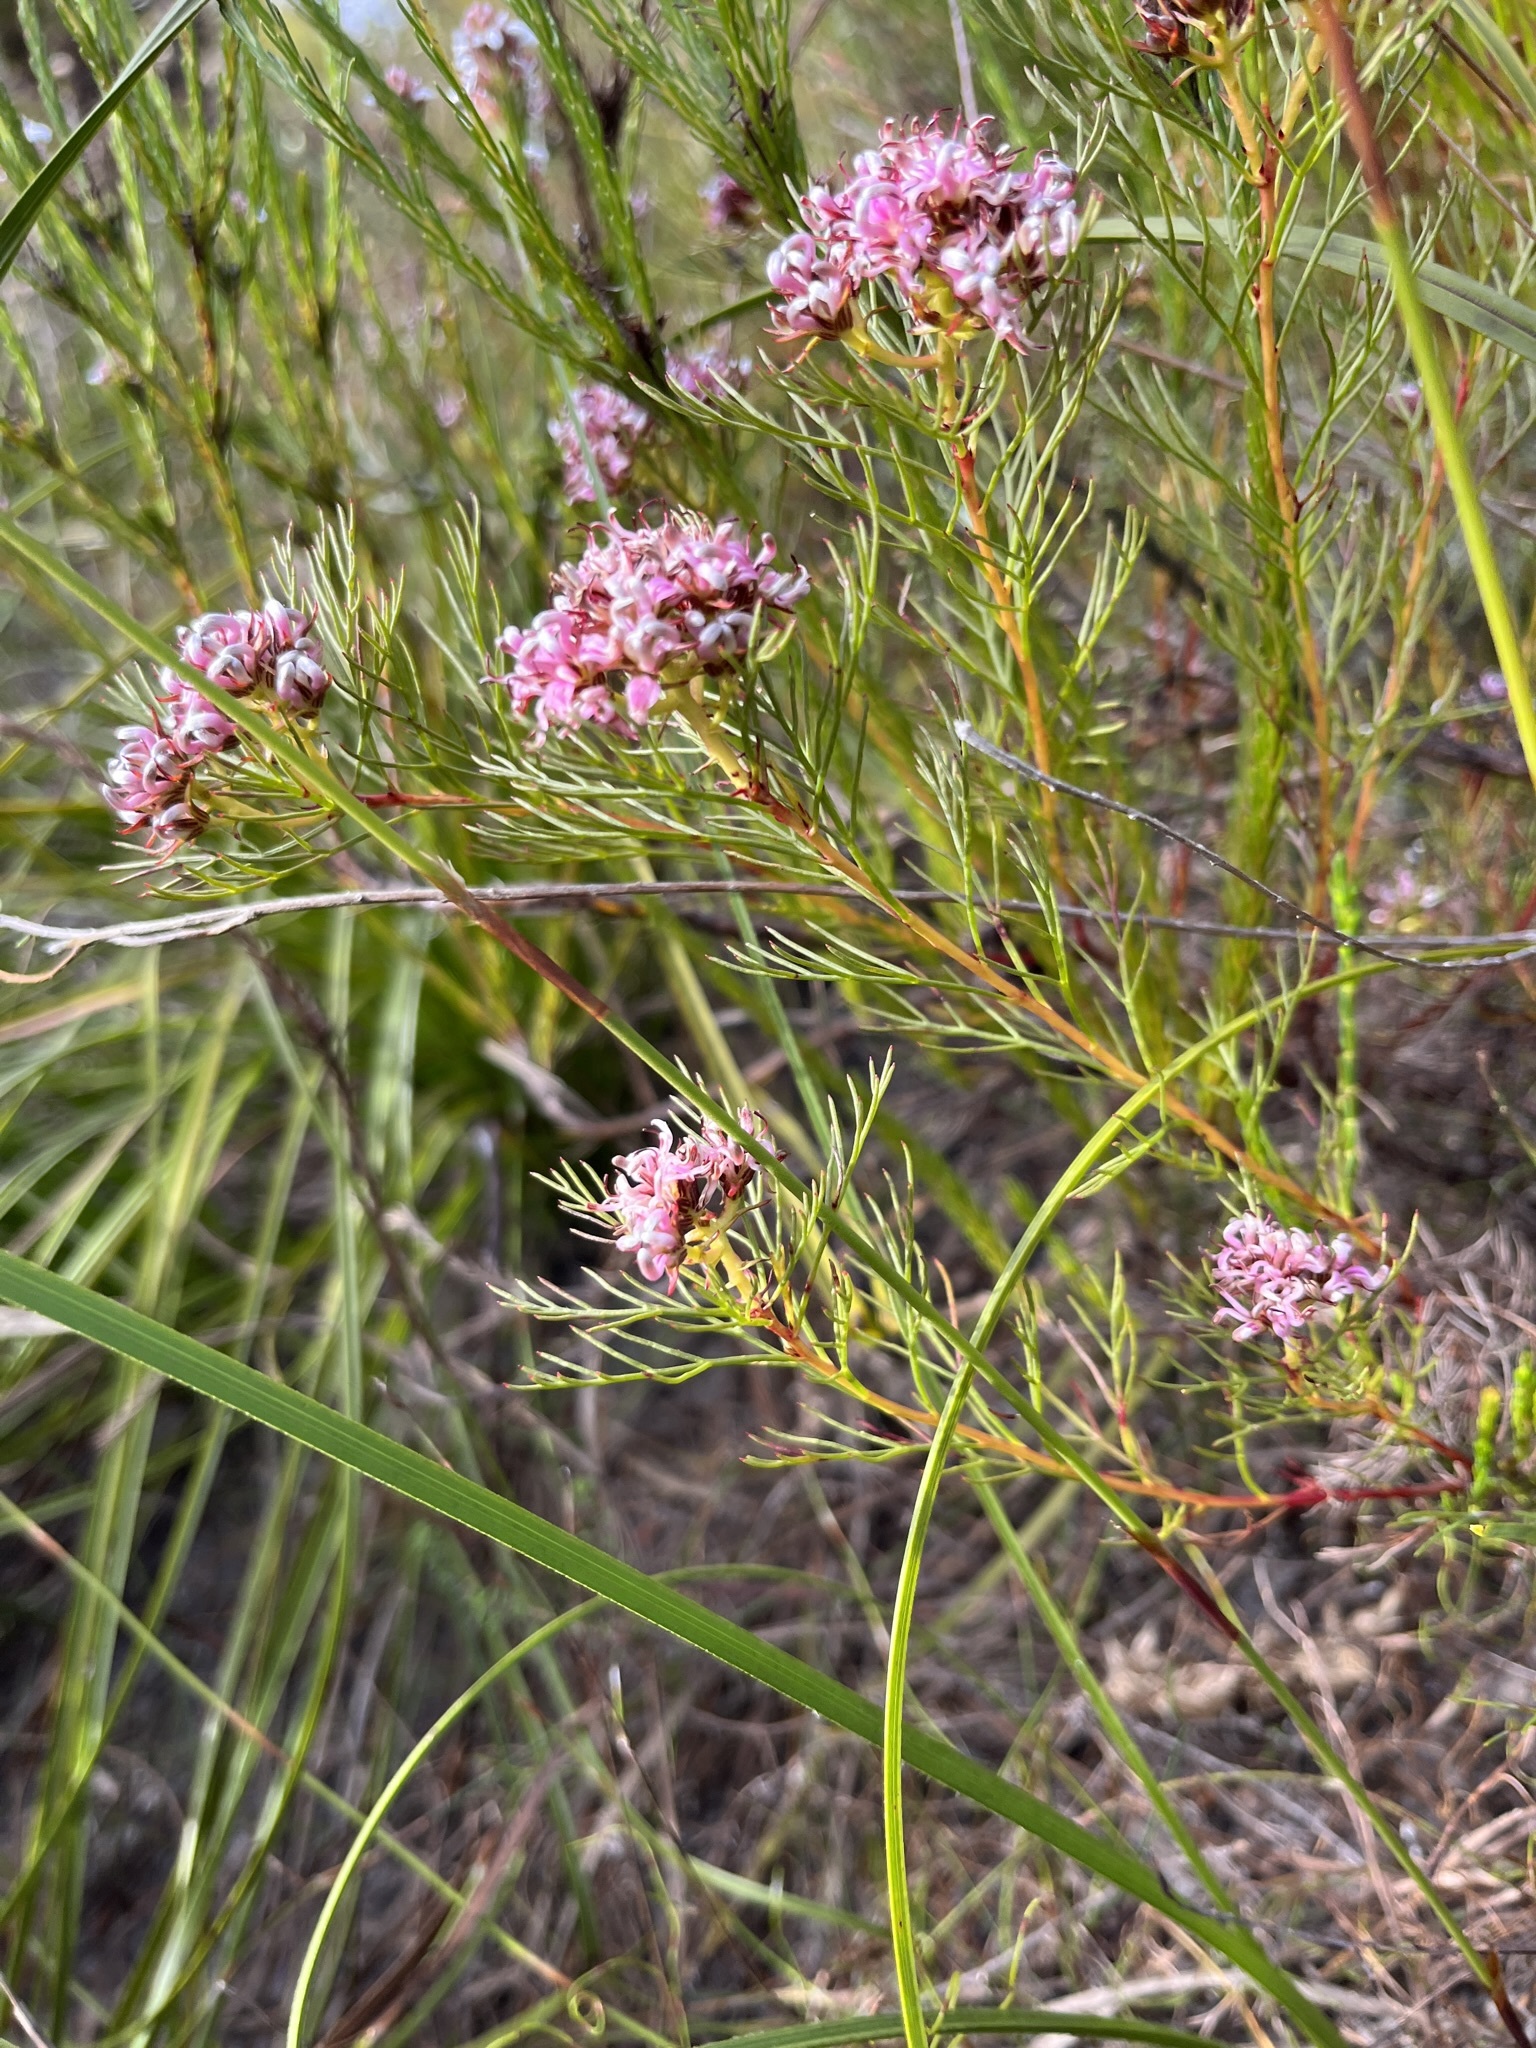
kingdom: Plantae
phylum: Tracheophyta
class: Magnoliopsida
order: Proteales
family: Proteaceae
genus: Serruria
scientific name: Serruria bolusii
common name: Agulhas spiderhead
